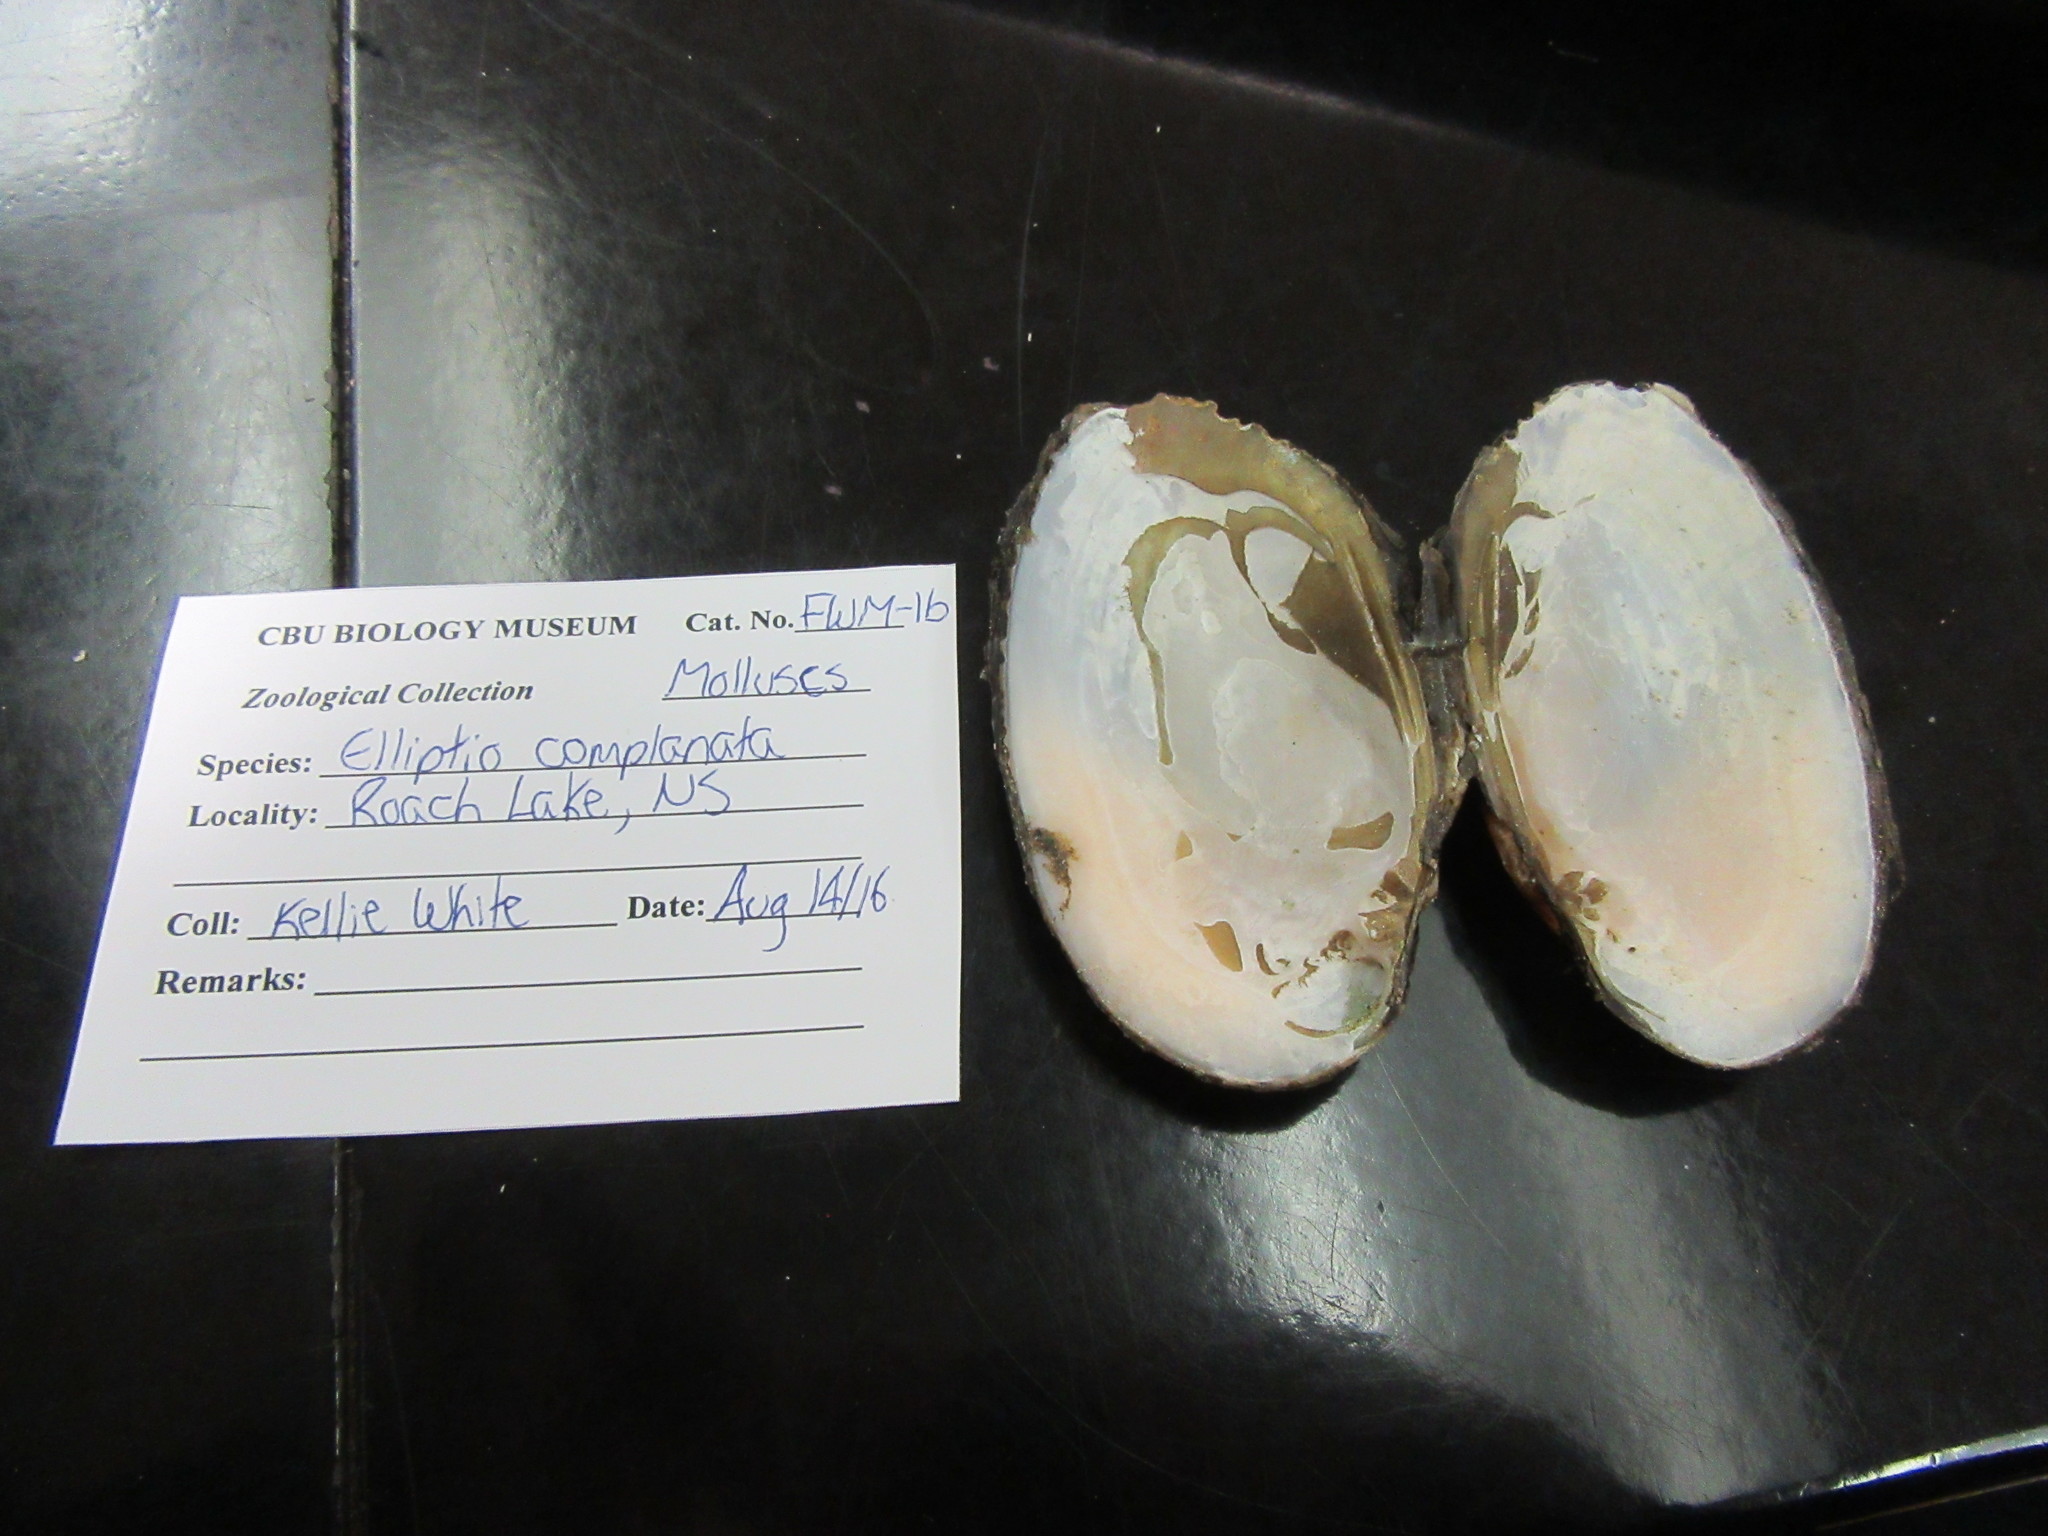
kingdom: Animalia
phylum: Mollusca
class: Bivalvia
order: Unionida
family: Unionidae
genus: Elliptio
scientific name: Elliptio complanata
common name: Eastern elliptio
